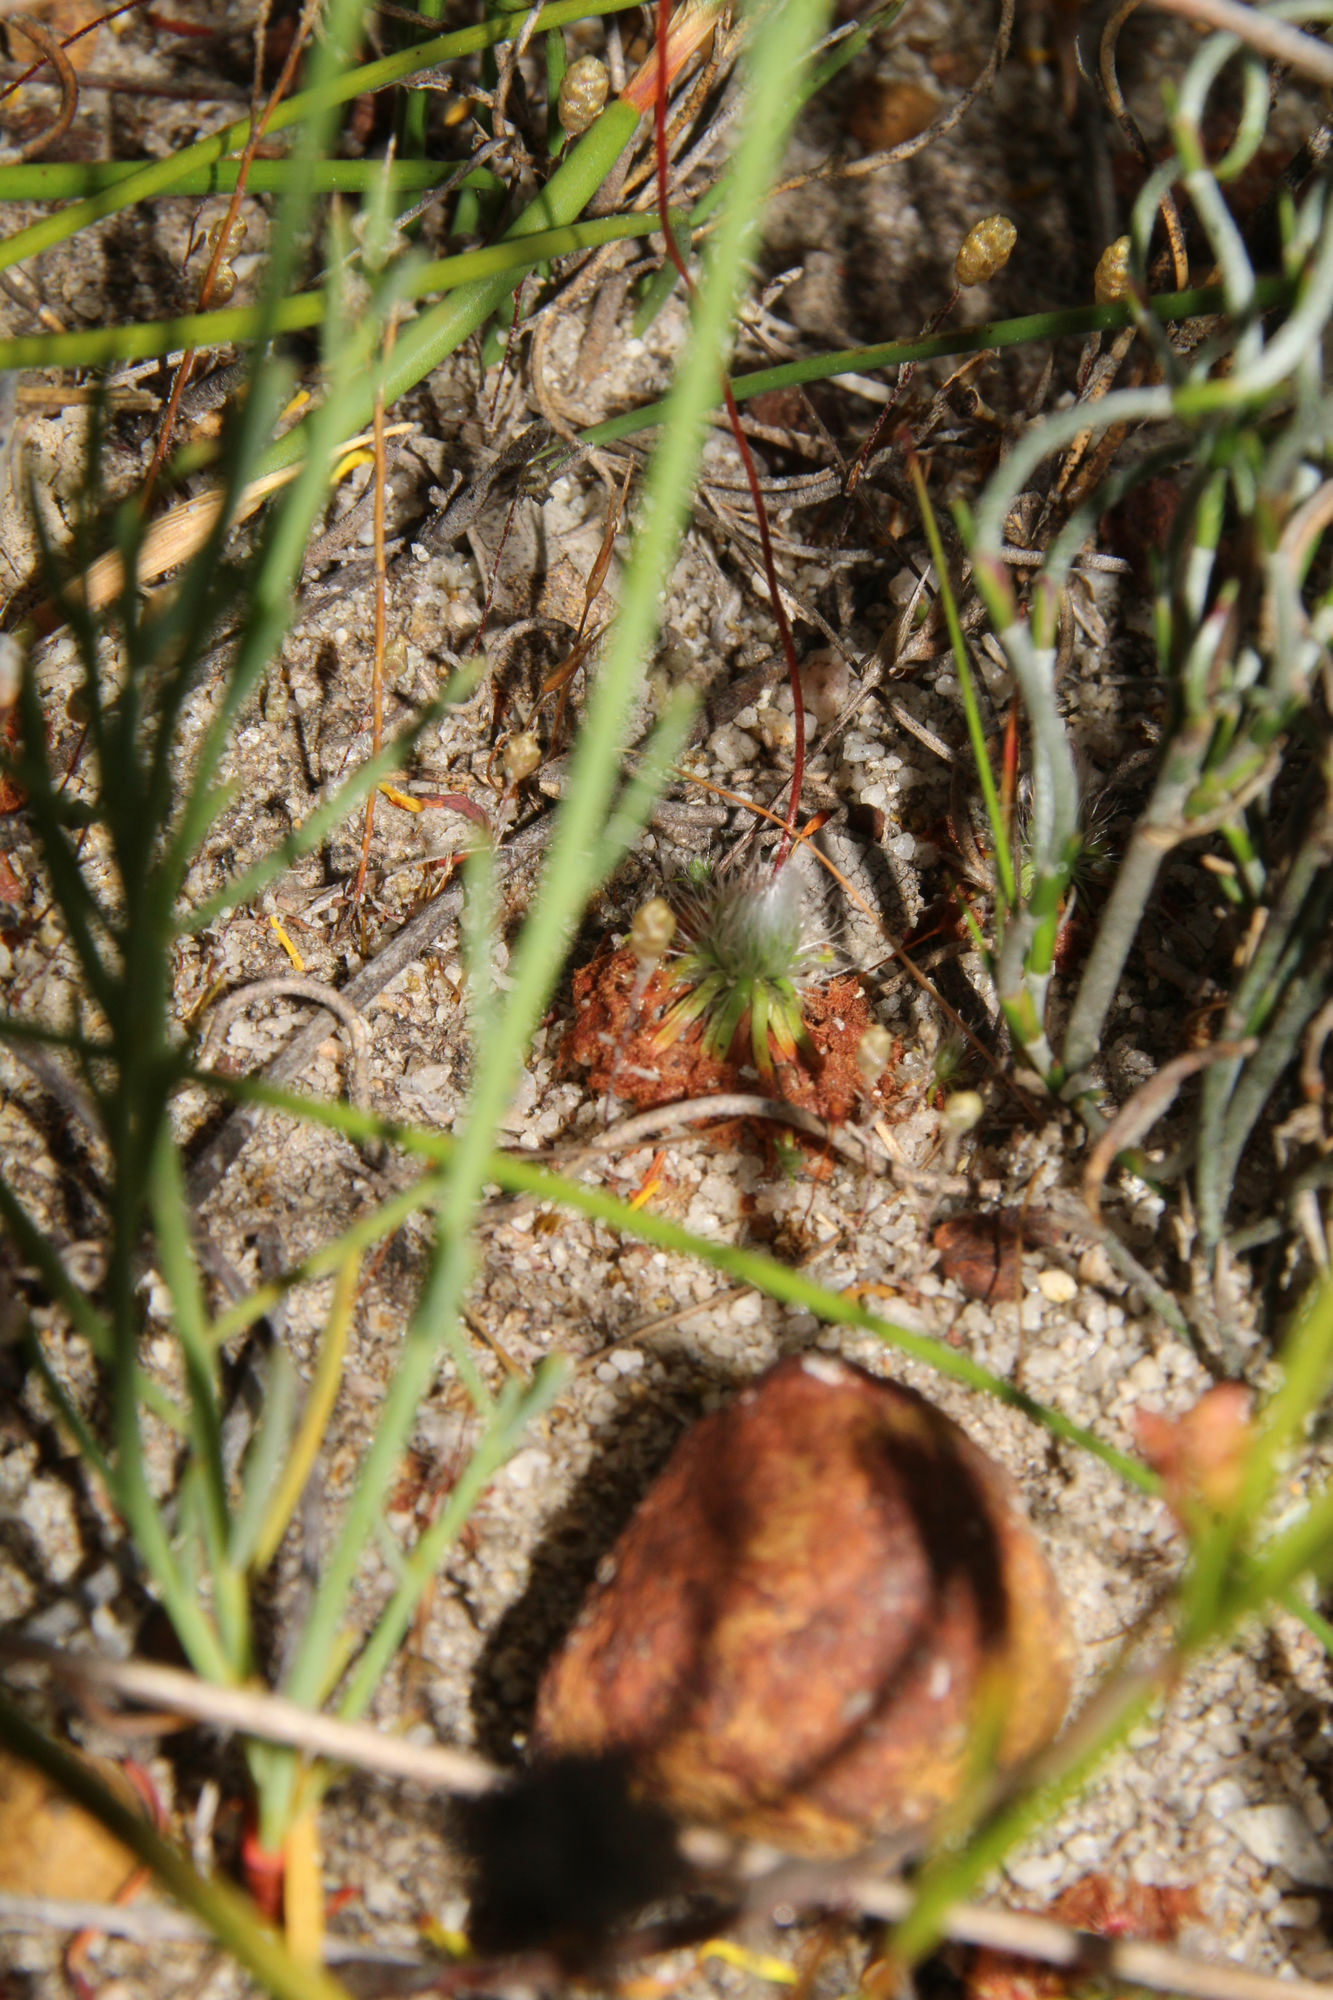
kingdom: Plantae
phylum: Tracheophyta
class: Magnoliopsida
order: Caryophyllales
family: Droseraceae
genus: Drosera
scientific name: Drosera spilos
